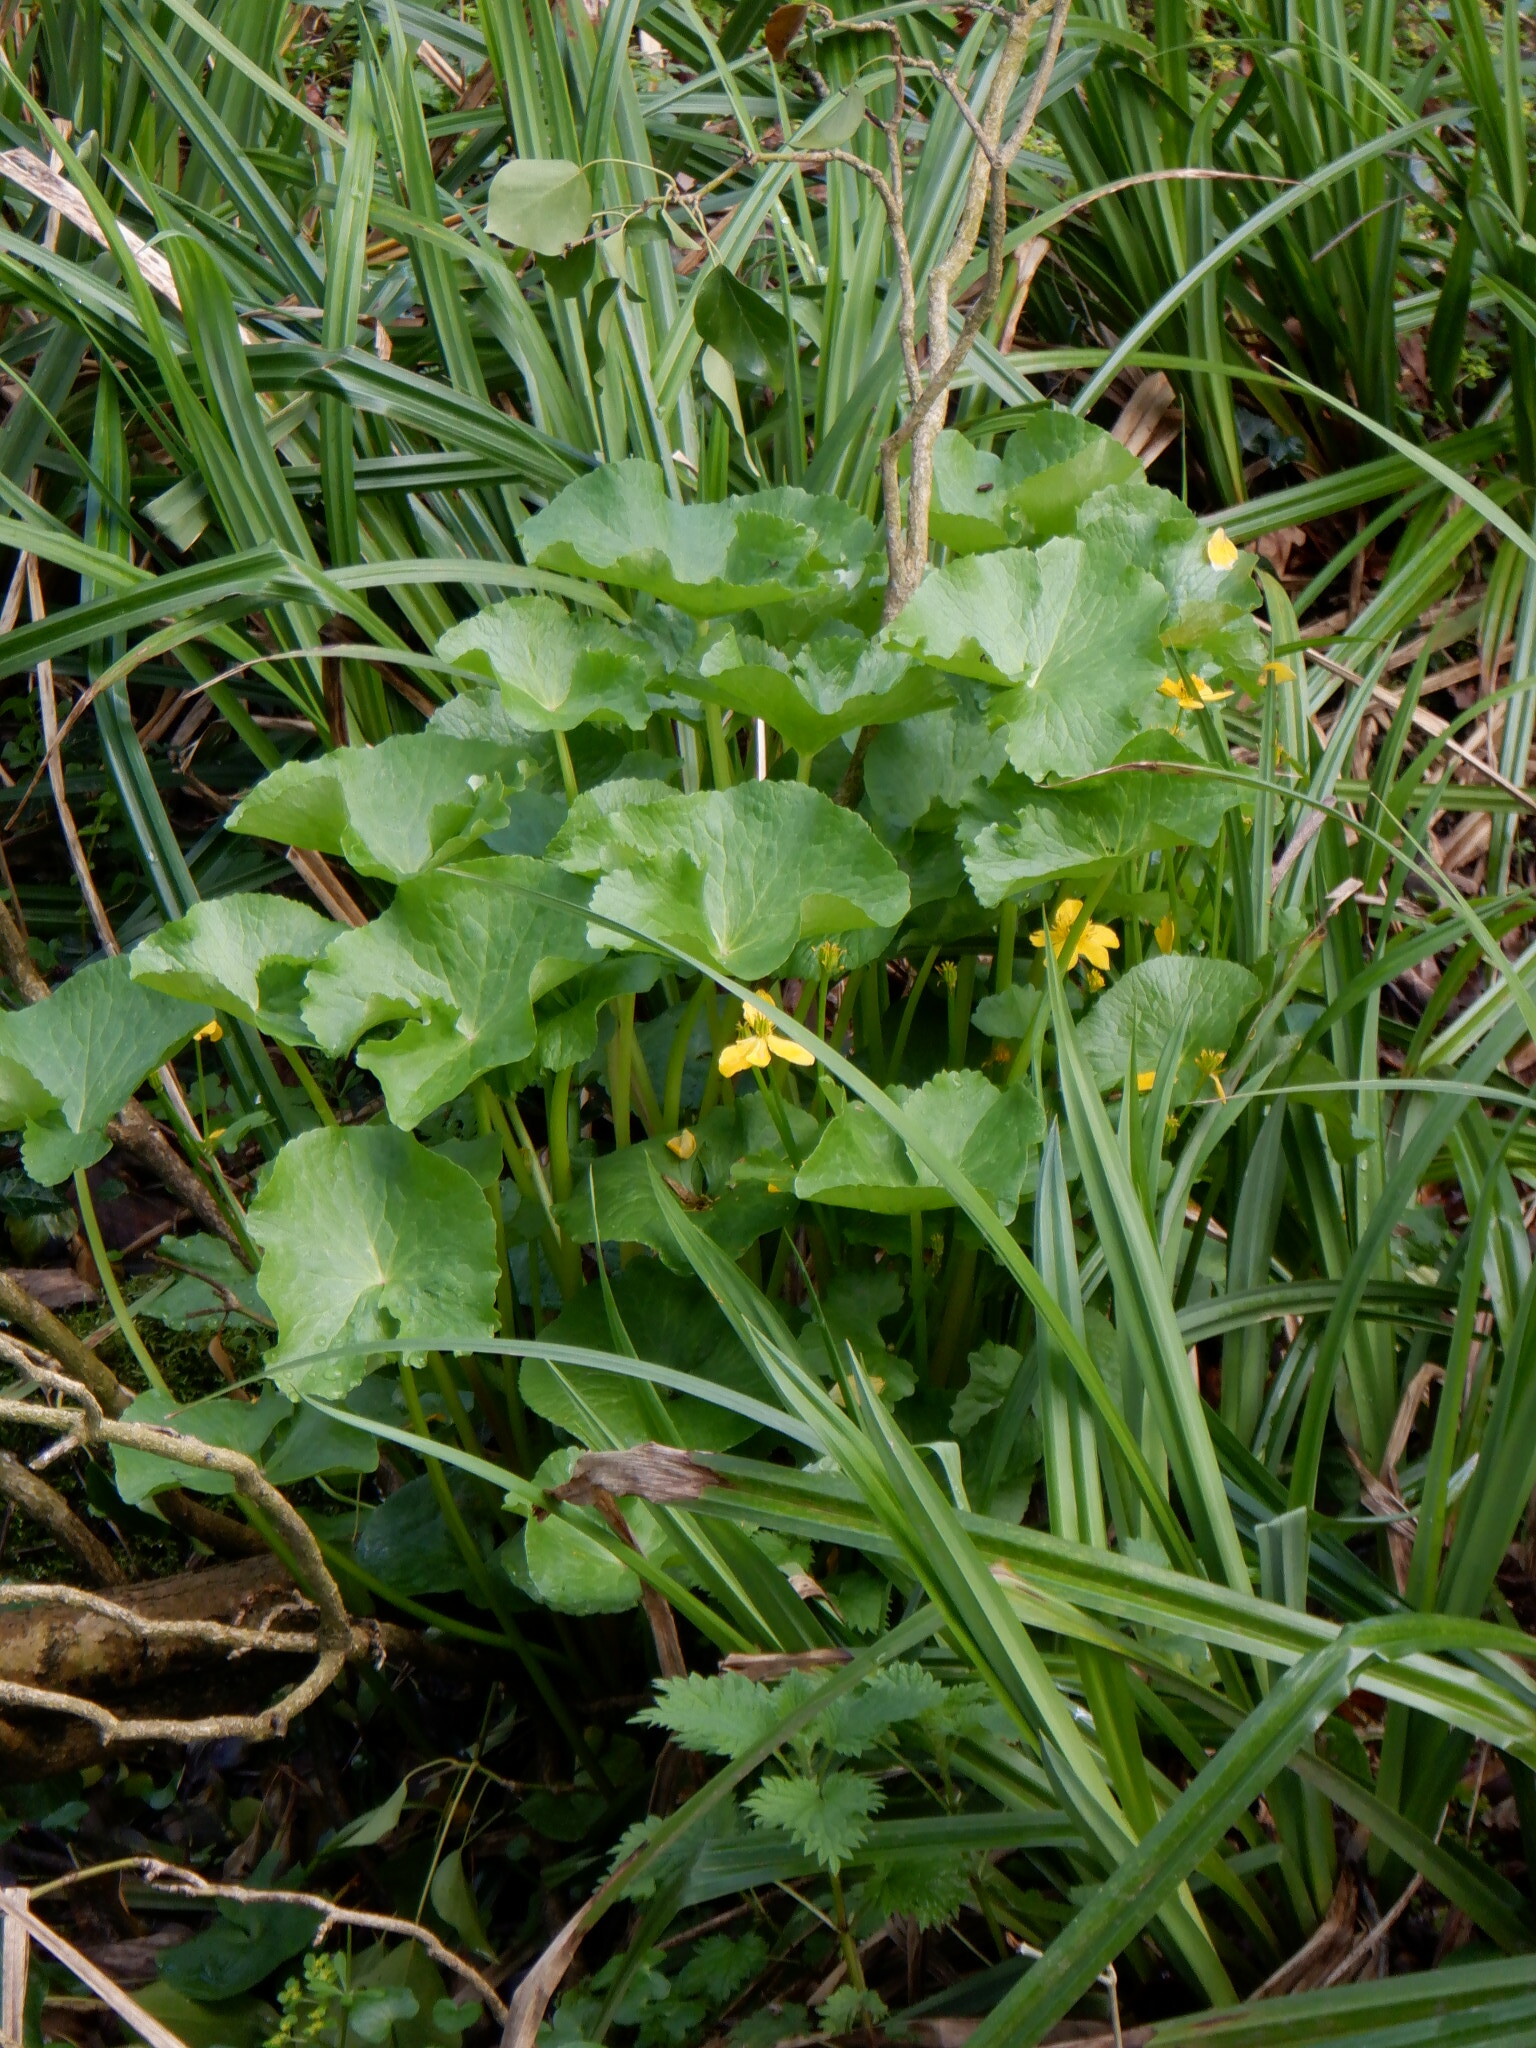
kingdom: Plantae
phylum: Tracheophyta
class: Magnoliopsida
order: Ranunculales
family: Ranunculaceae
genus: Caltha
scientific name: Caltha palustris
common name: Marsh marigold
